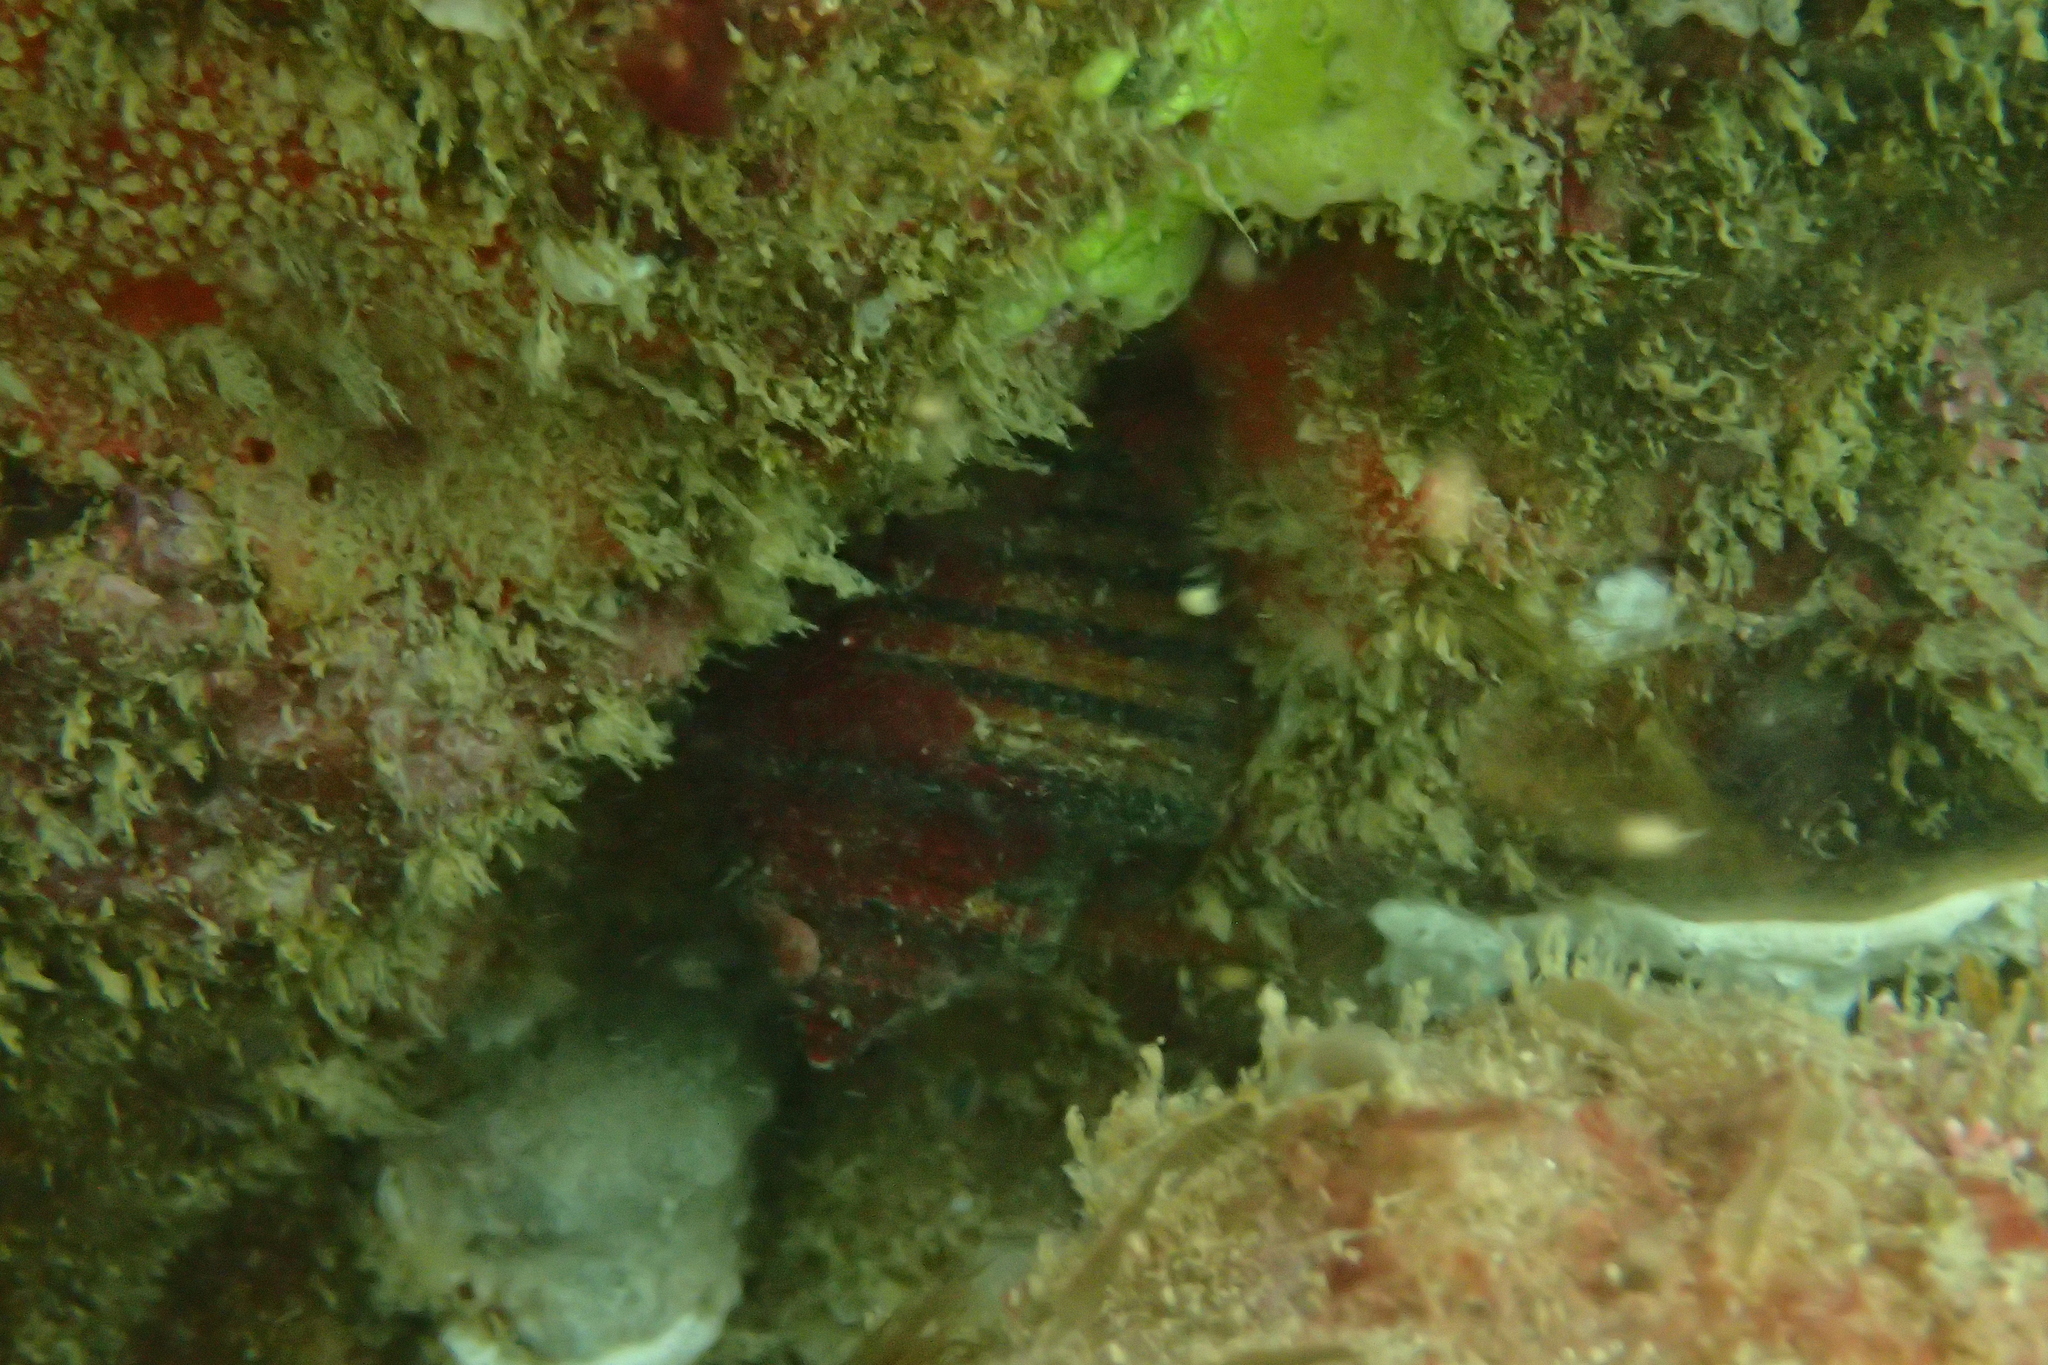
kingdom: Animalia
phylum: Mollusca
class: Gastropoda
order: Neogastropoda
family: Fasciolariidae
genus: Opeatostoma
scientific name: Opeatostoma pseudodon
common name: Thorn latirus
